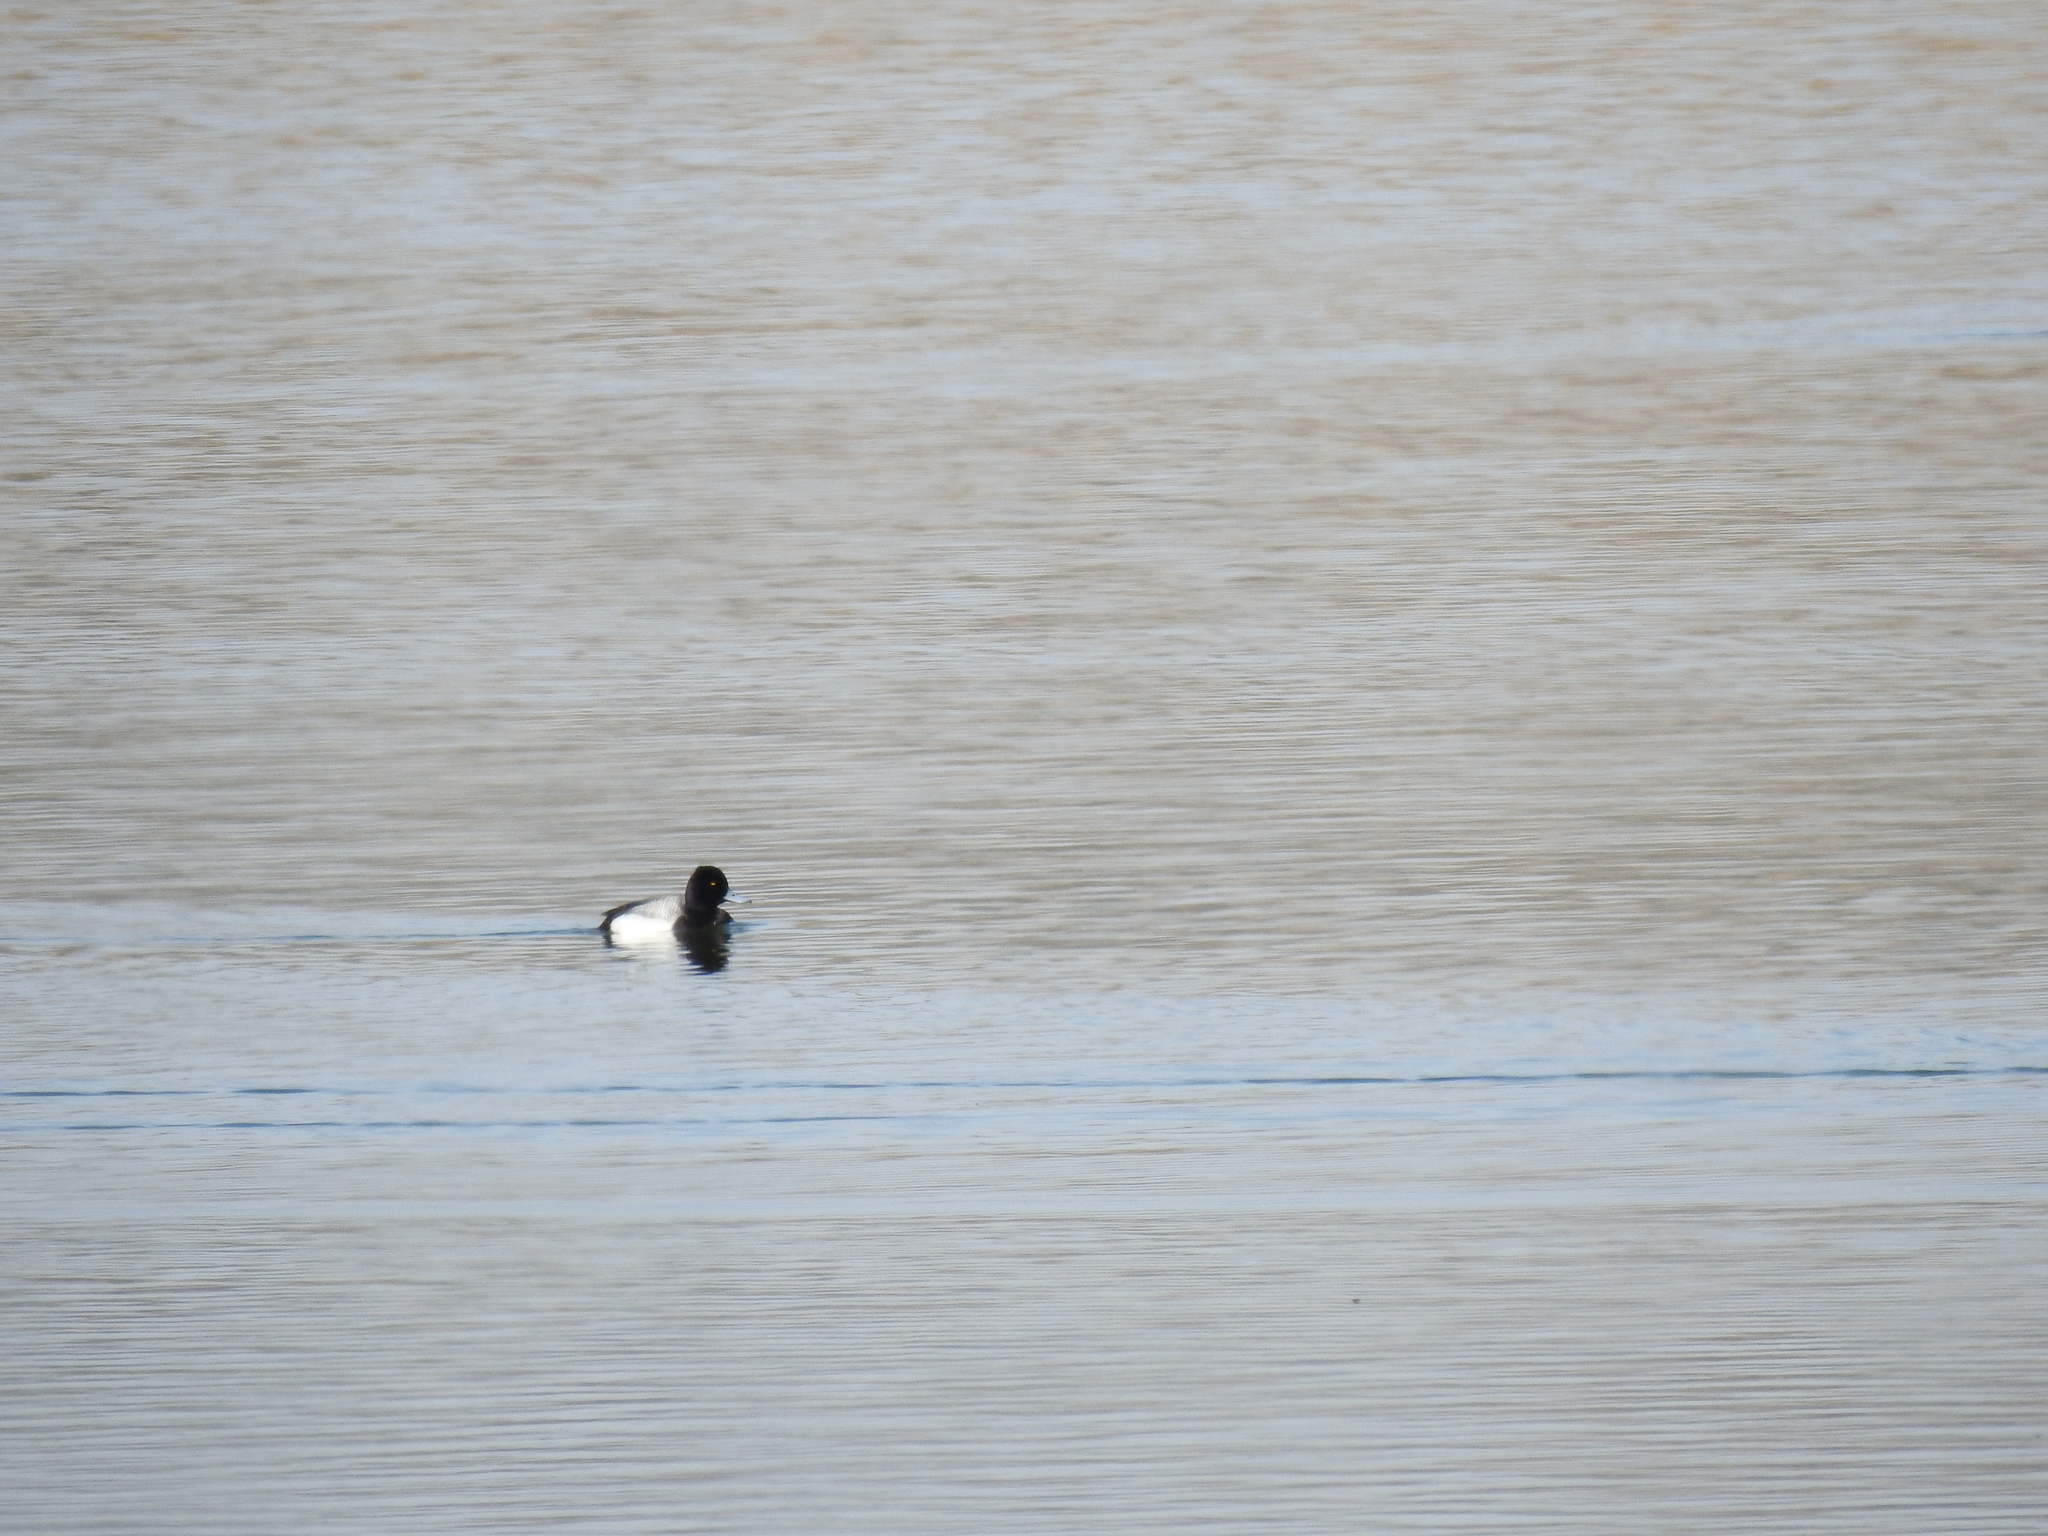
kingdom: Animalia
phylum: Chordata
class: Aves
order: Anseriformes
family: Anatidae
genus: Aythya
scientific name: Aythya affinis
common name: Lesser scaup
